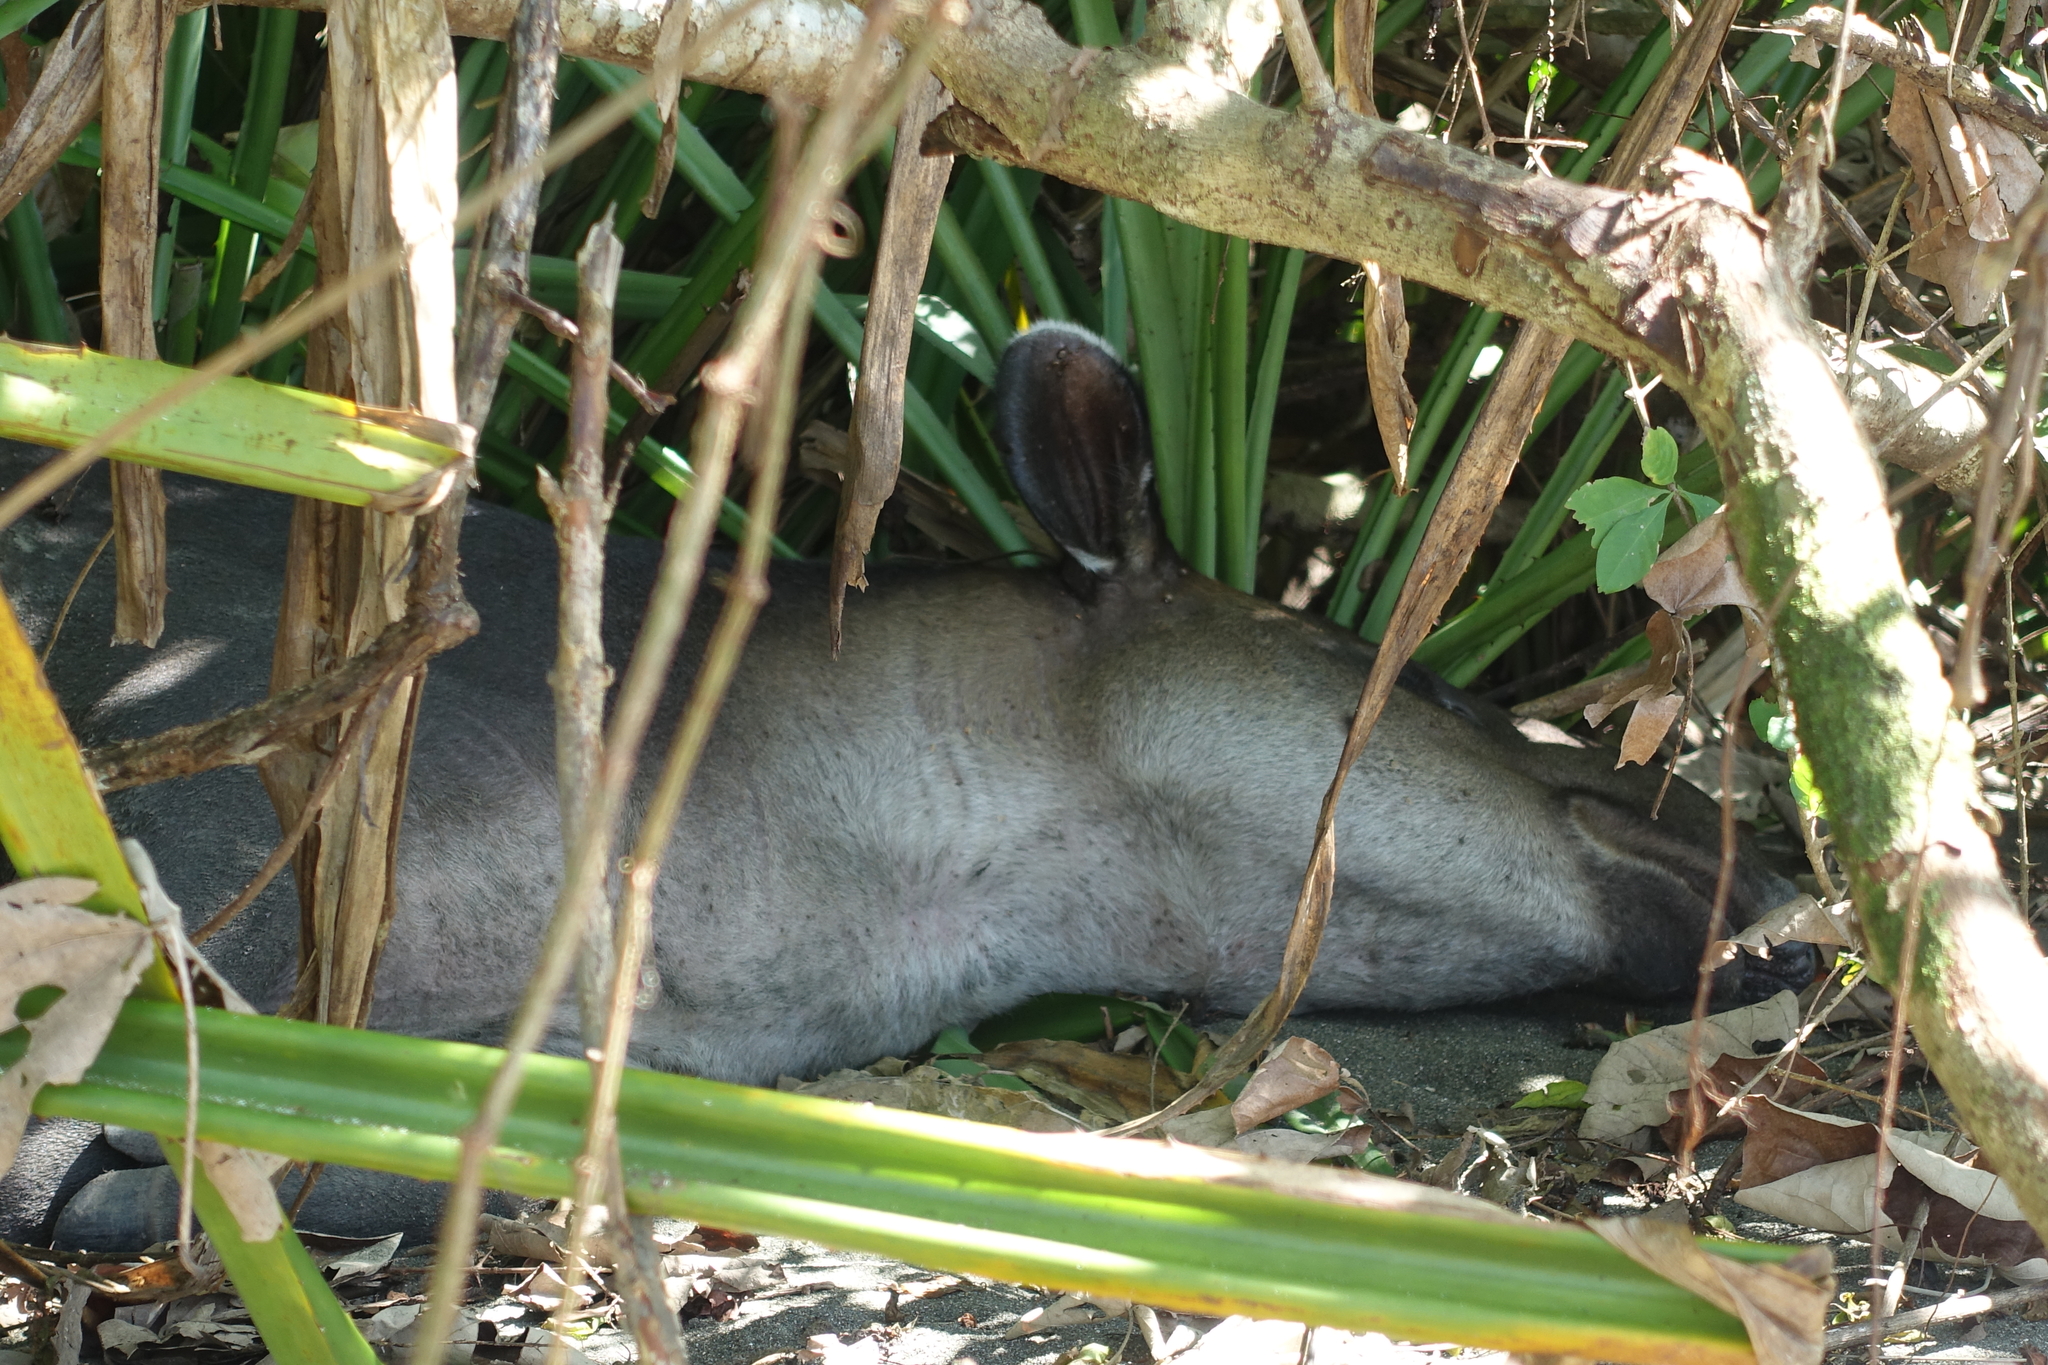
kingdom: Animalia
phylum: Chordata
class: Mammalia
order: Perissodactyla
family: Tapiridae
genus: Tapirella
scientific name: Tapirella bairdii
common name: Baird's tapir
